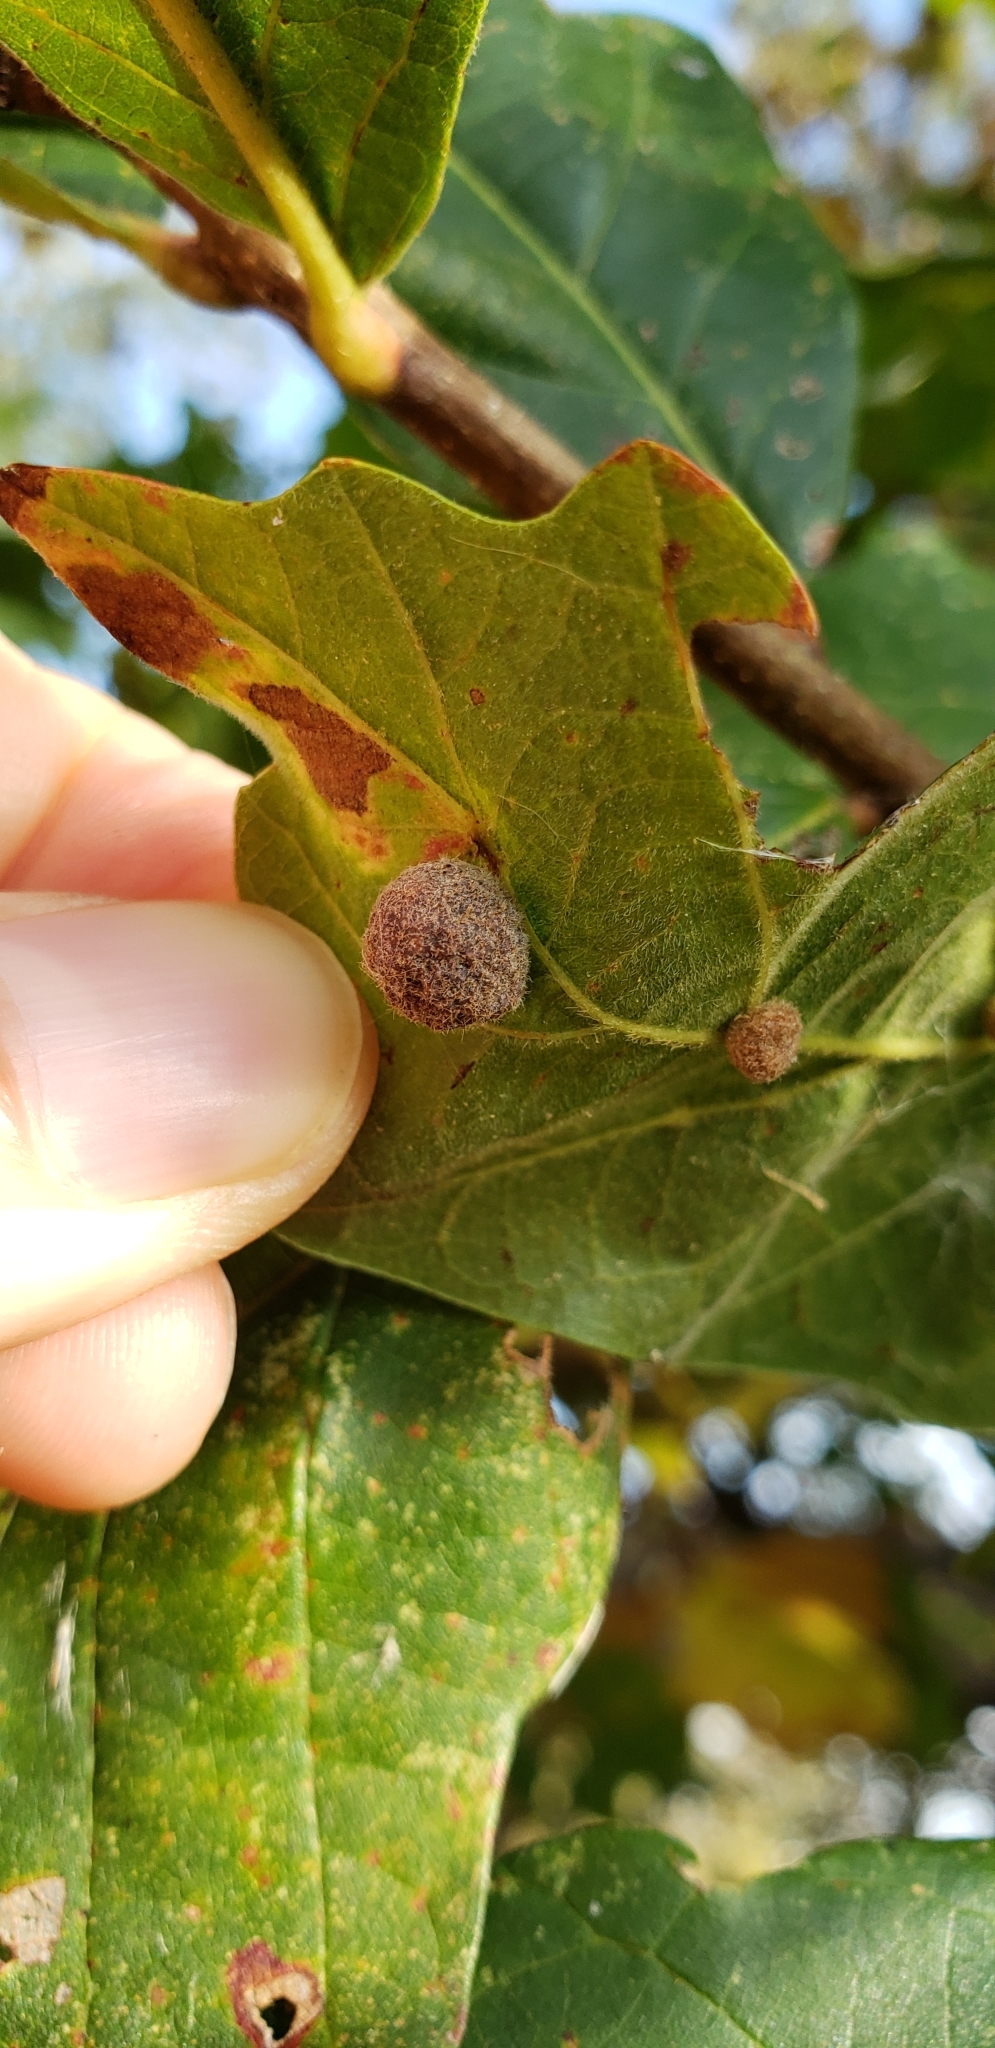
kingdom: Animalia
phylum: Arthropoda
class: Insecta
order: Hymenoptera
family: Cynipidae
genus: Philonix
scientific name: Philonix fulvicollis
